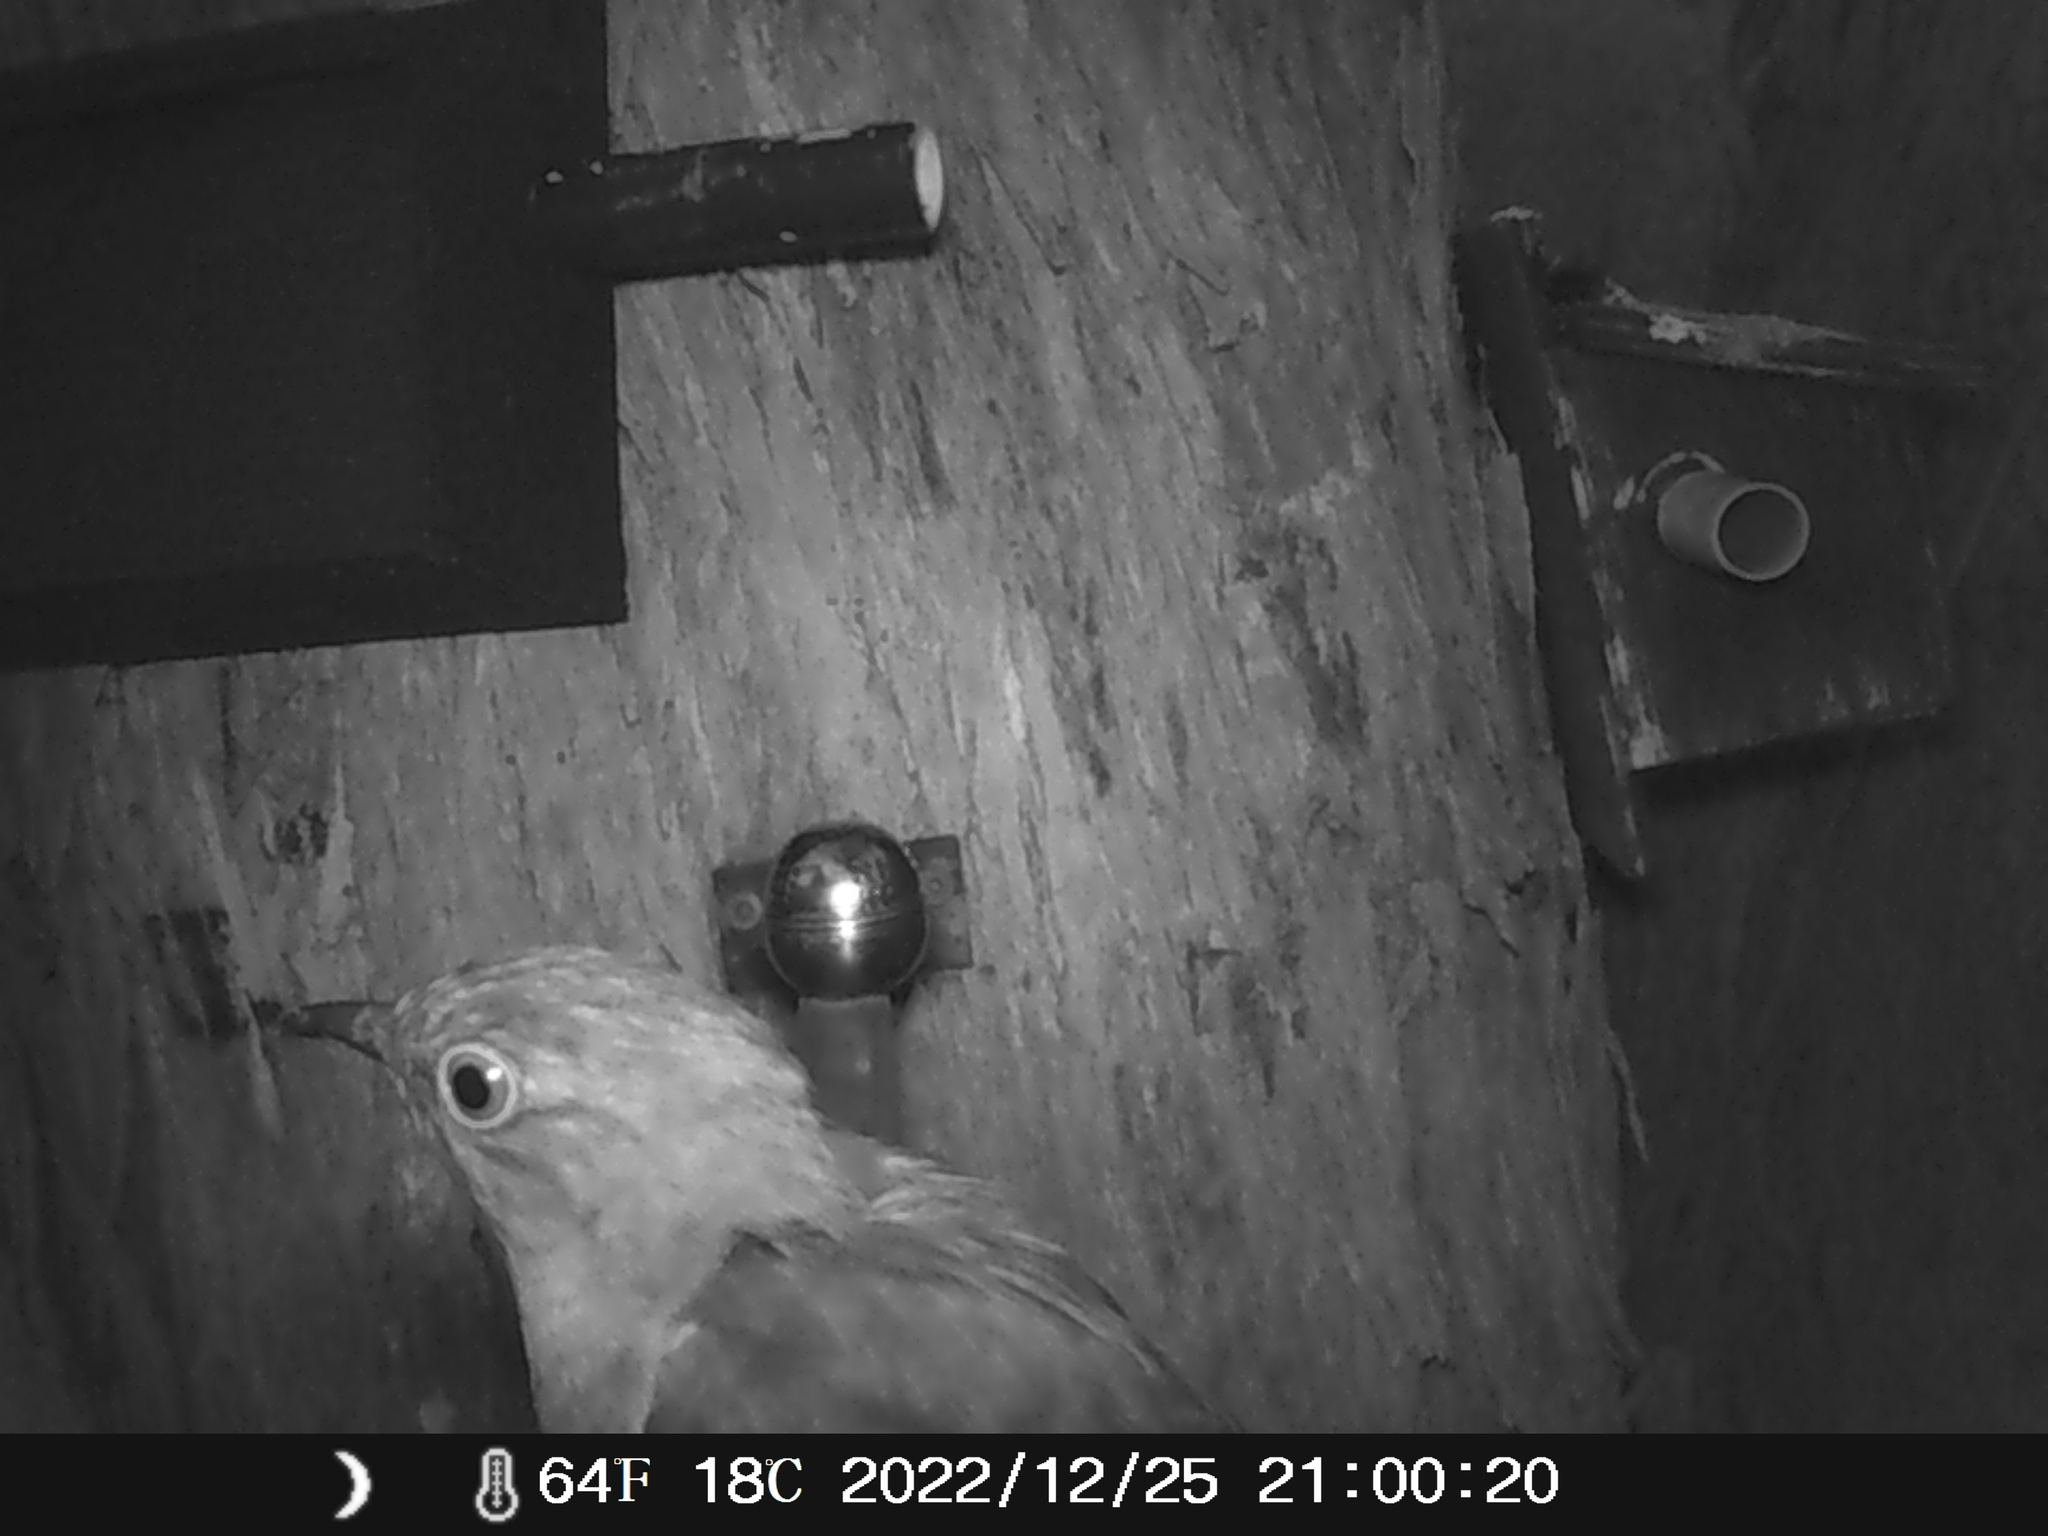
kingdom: Animalia
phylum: Chordata
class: Aves
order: Cuculiformes
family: Cuculidae
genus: Cacomantis
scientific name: Cacomantis flabelliformis
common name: Fan-tailed cuckoo
